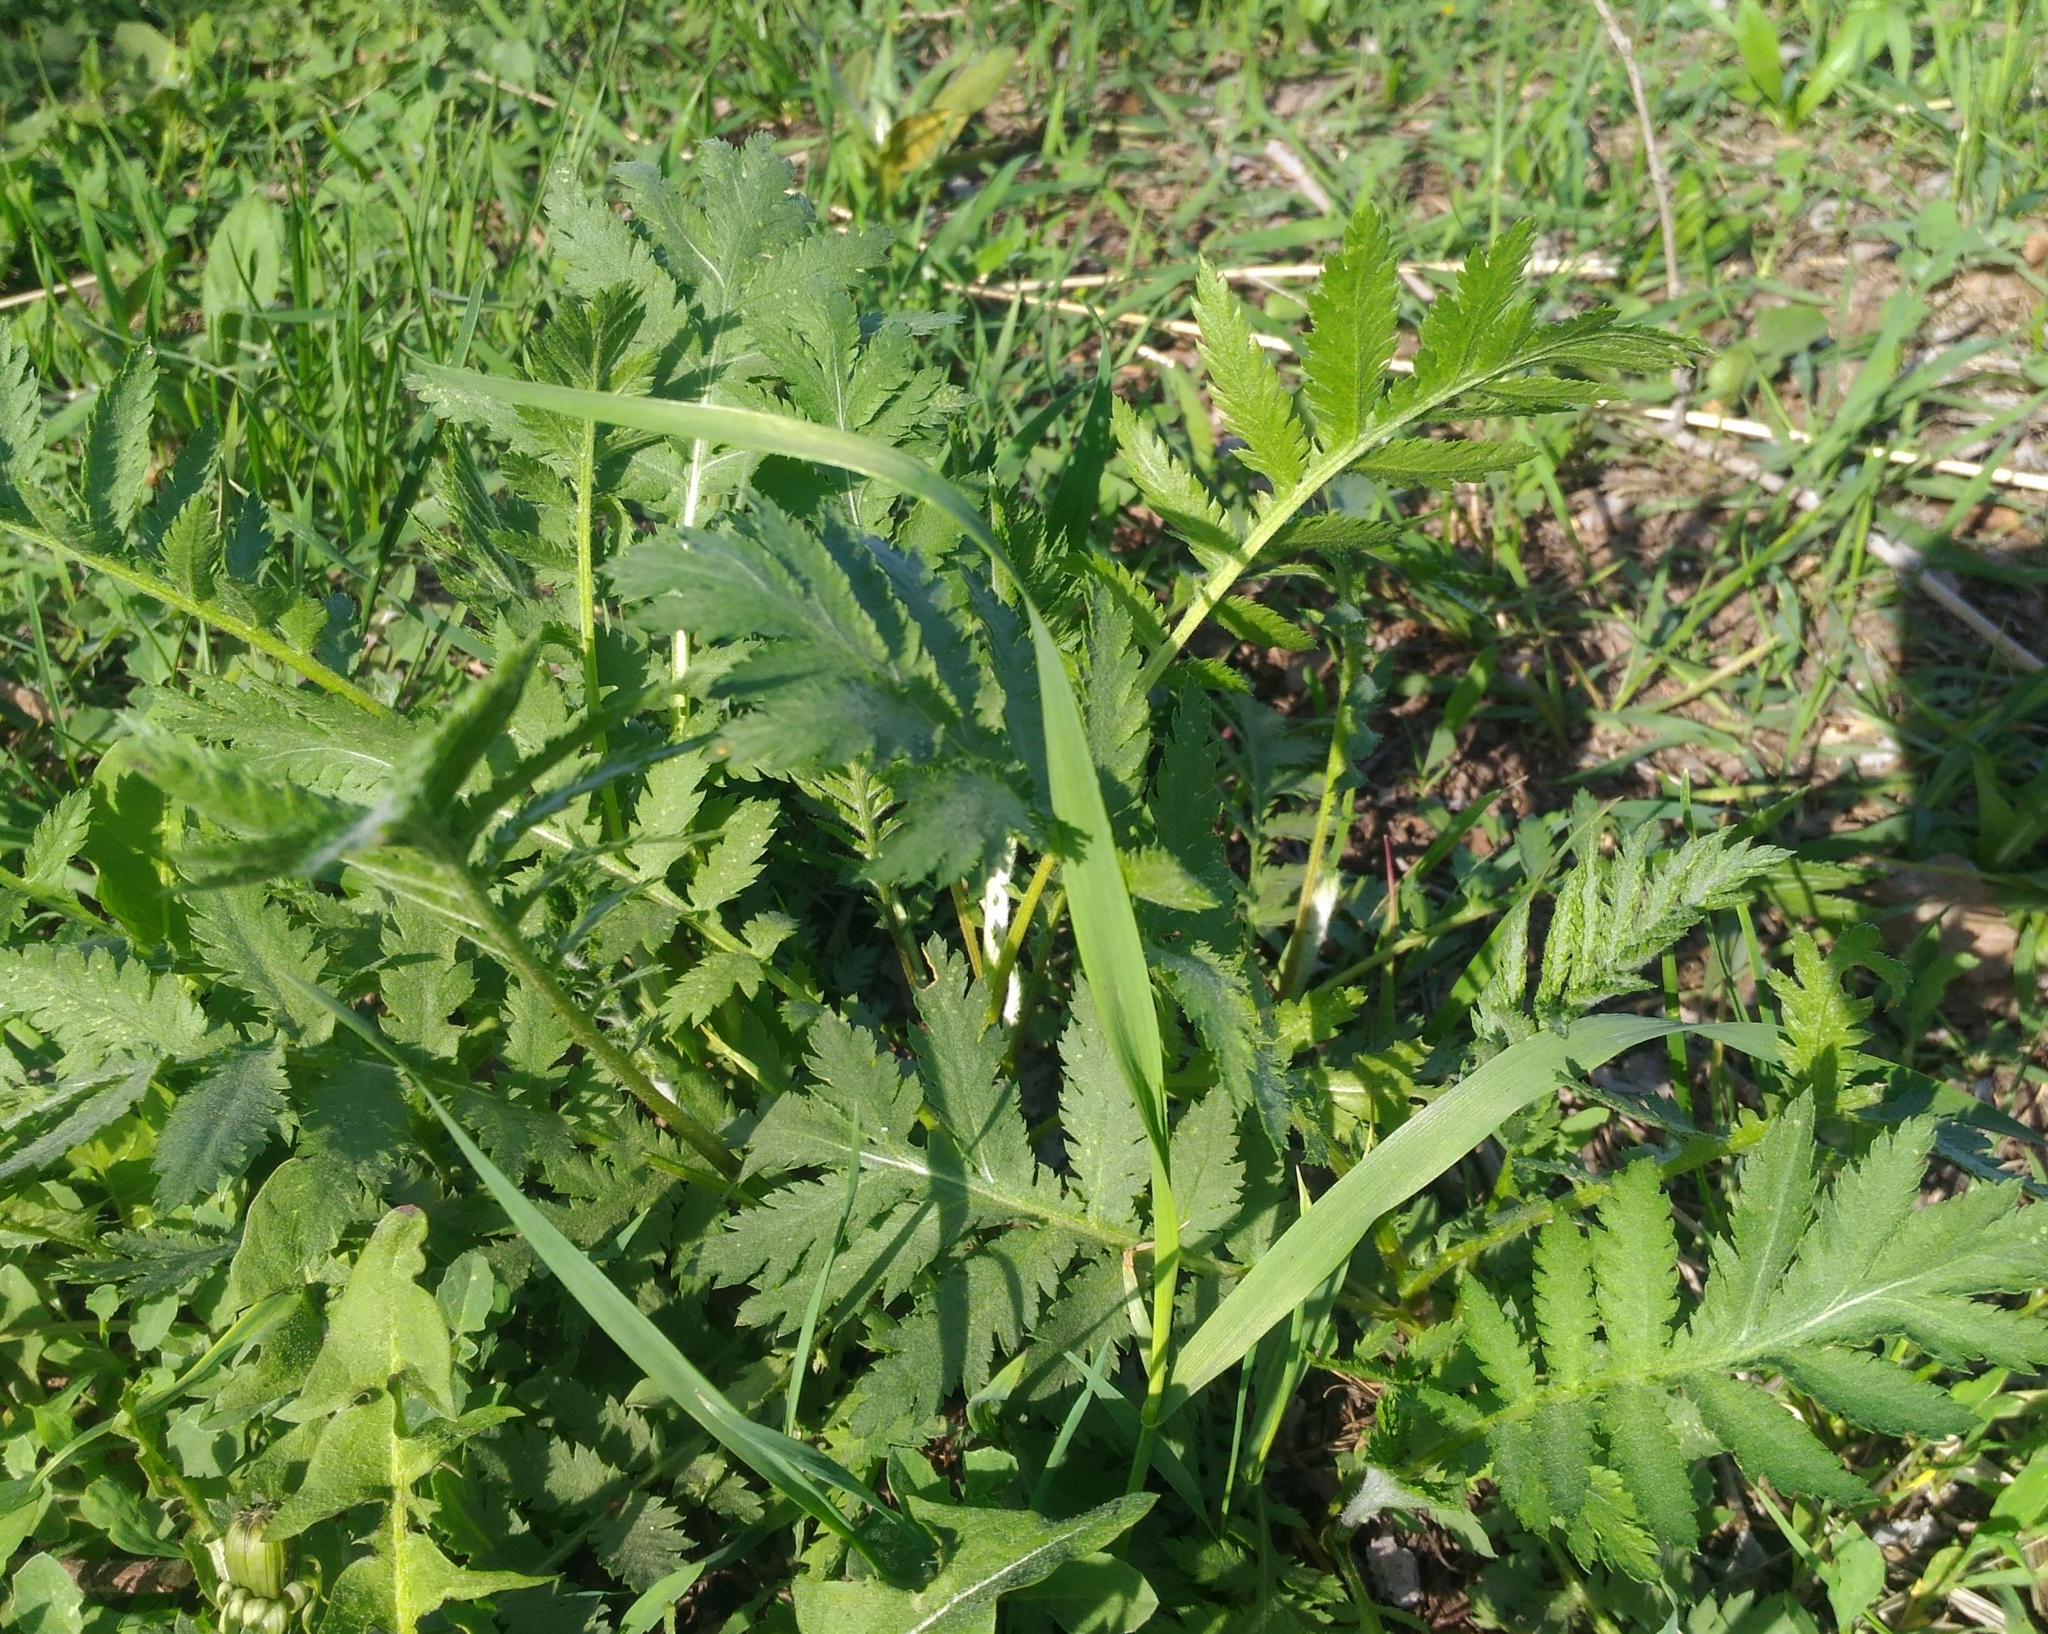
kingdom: Plantae
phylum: Tracheophyta
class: Magnoliopsida
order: Asterales
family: Asteraceae
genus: Tanacetum
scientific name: Tanacetum vulgare
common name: Common tansy
